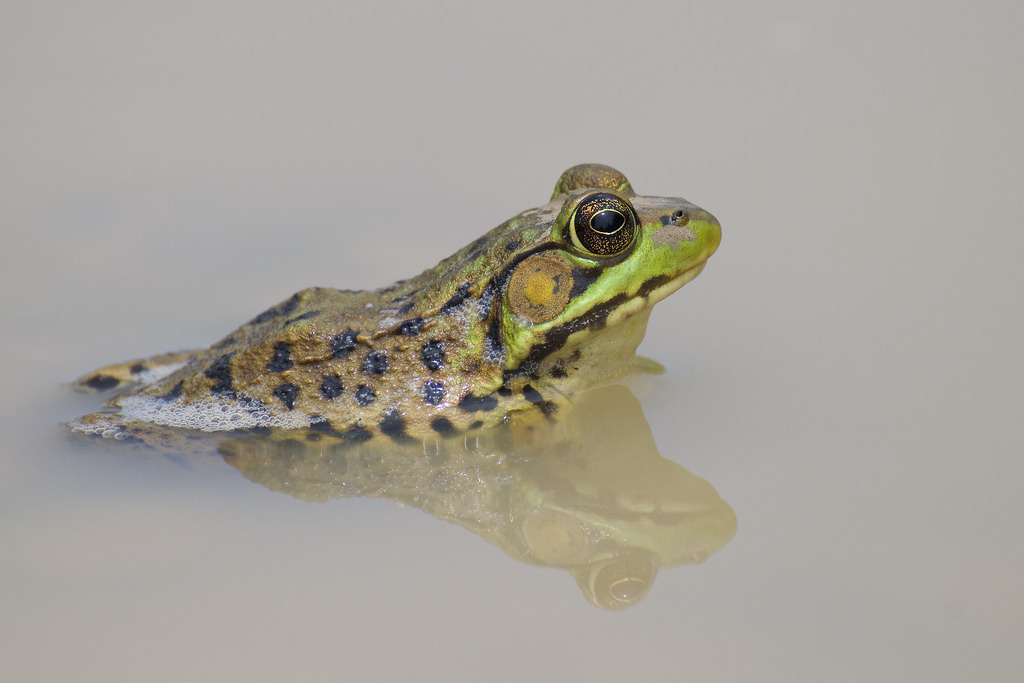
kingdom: Animalia
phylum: Chordata
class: Amphibia
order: Anura
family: Ranidae
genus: Lithobates
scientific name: Lithobates clamitans
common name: Green frog
